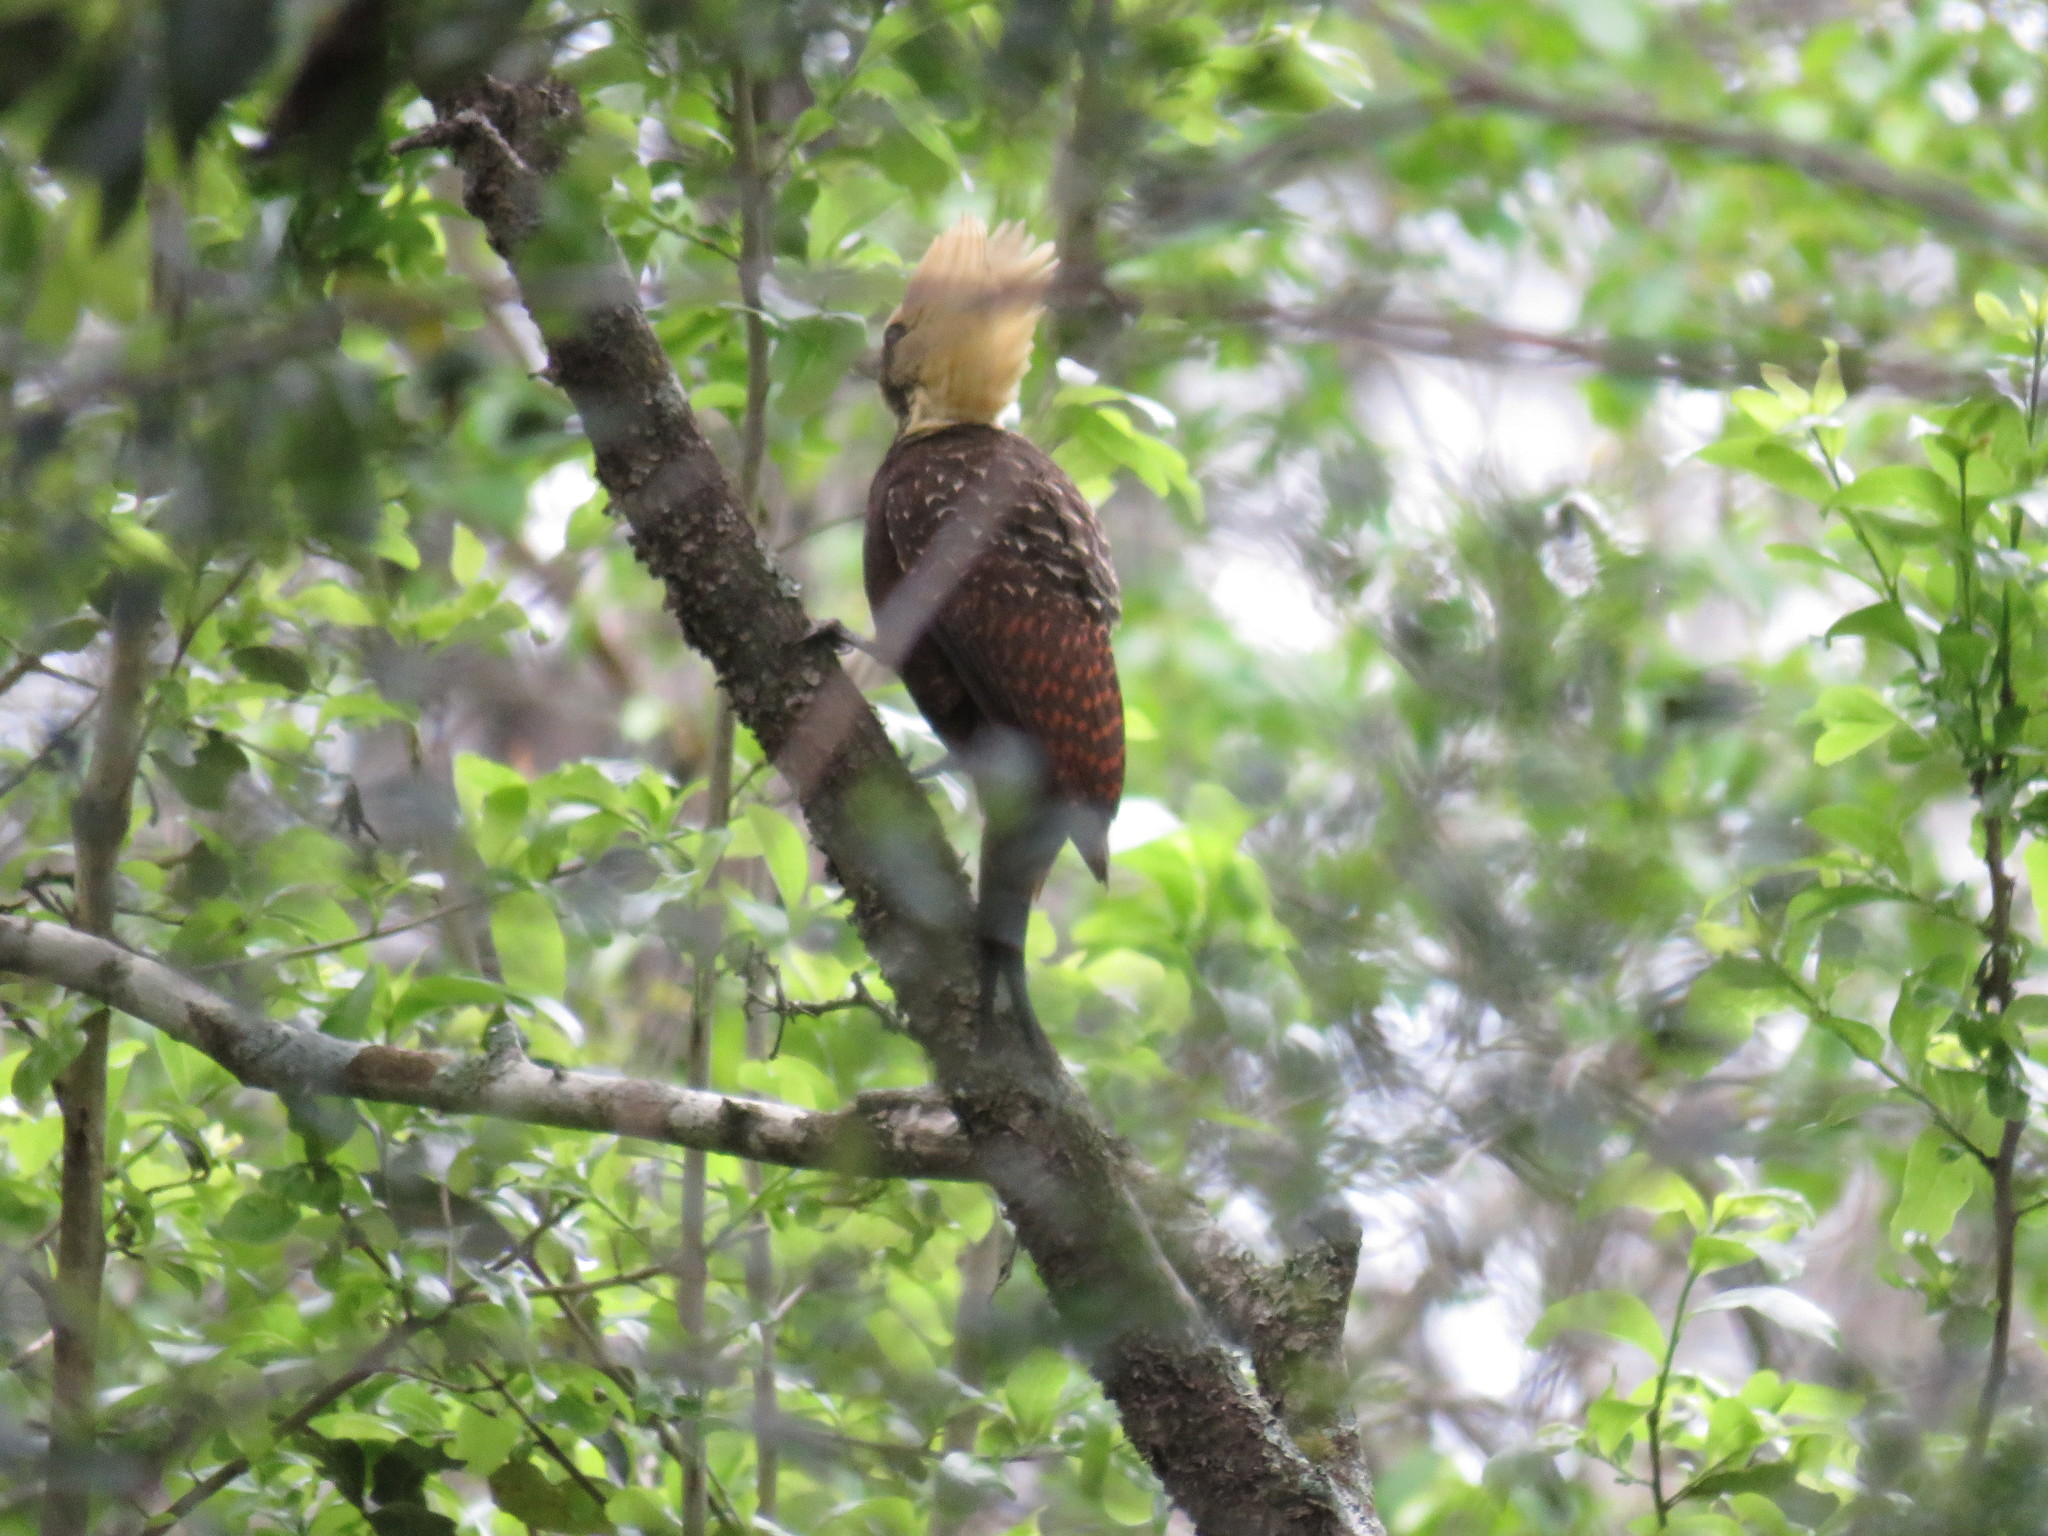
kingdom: Animalia
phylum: Chordata
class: Aves
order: Piciformes
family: Picidae
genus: Celeus
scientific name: Celeus lugubris
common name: Pale-crested woodpecker
